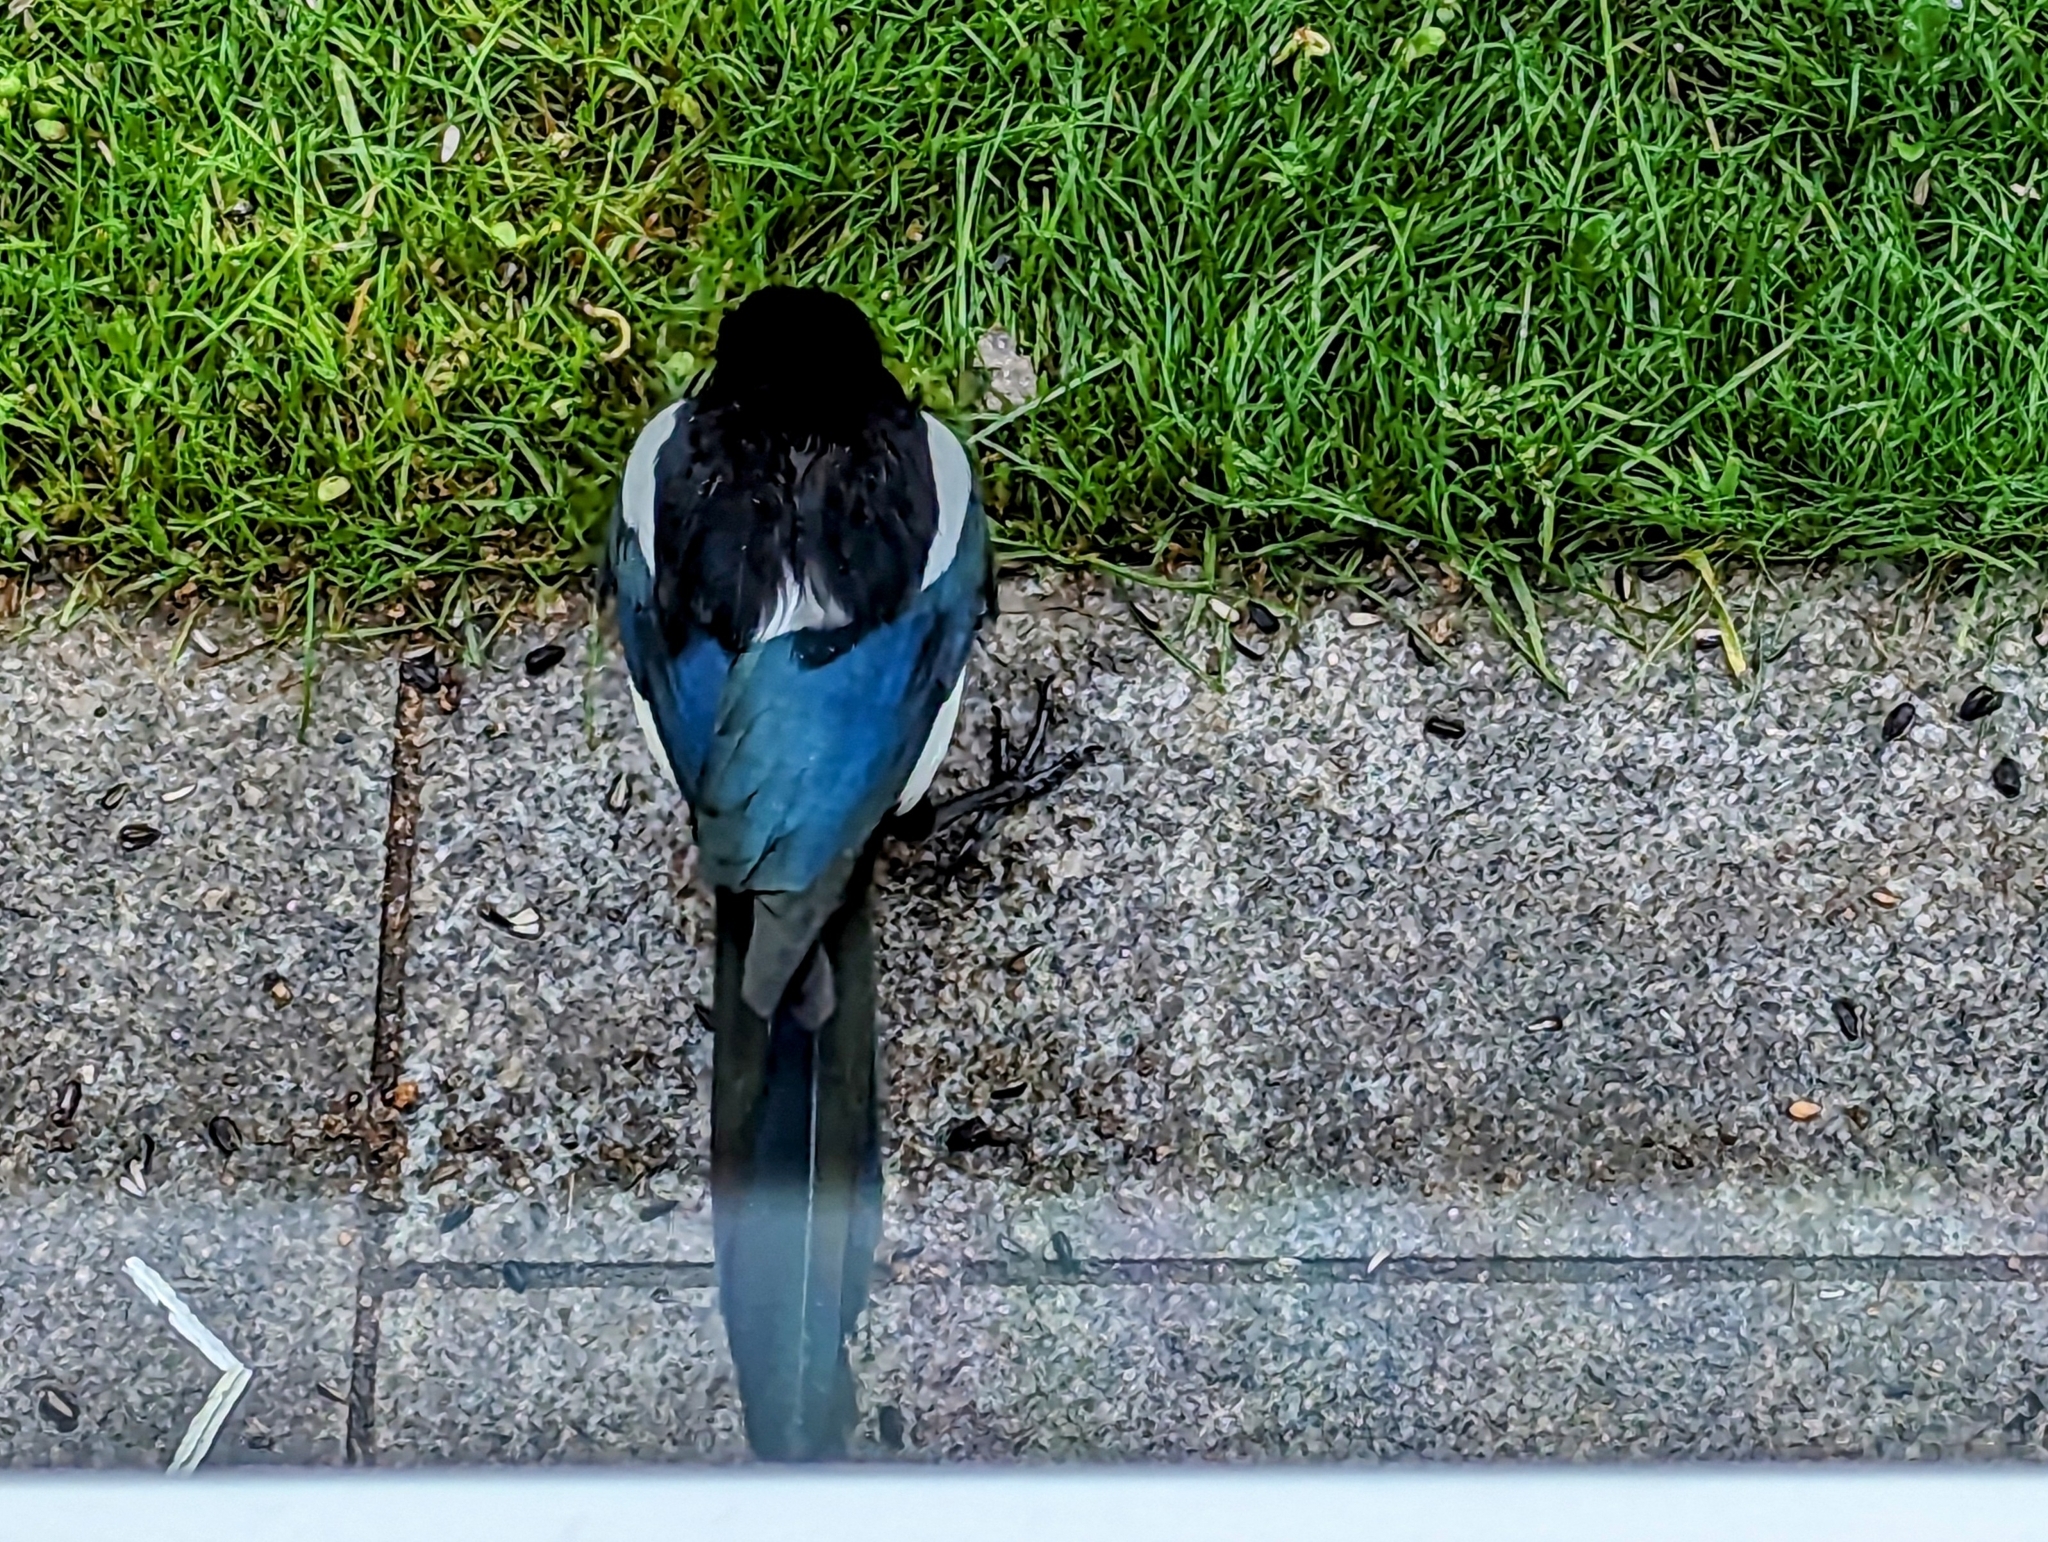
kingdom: Animalia
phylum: Chordata
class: Aves
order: Passeriformes
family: Corvidae
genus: Pica
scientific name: Pica pica
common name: Eurasian magpie
